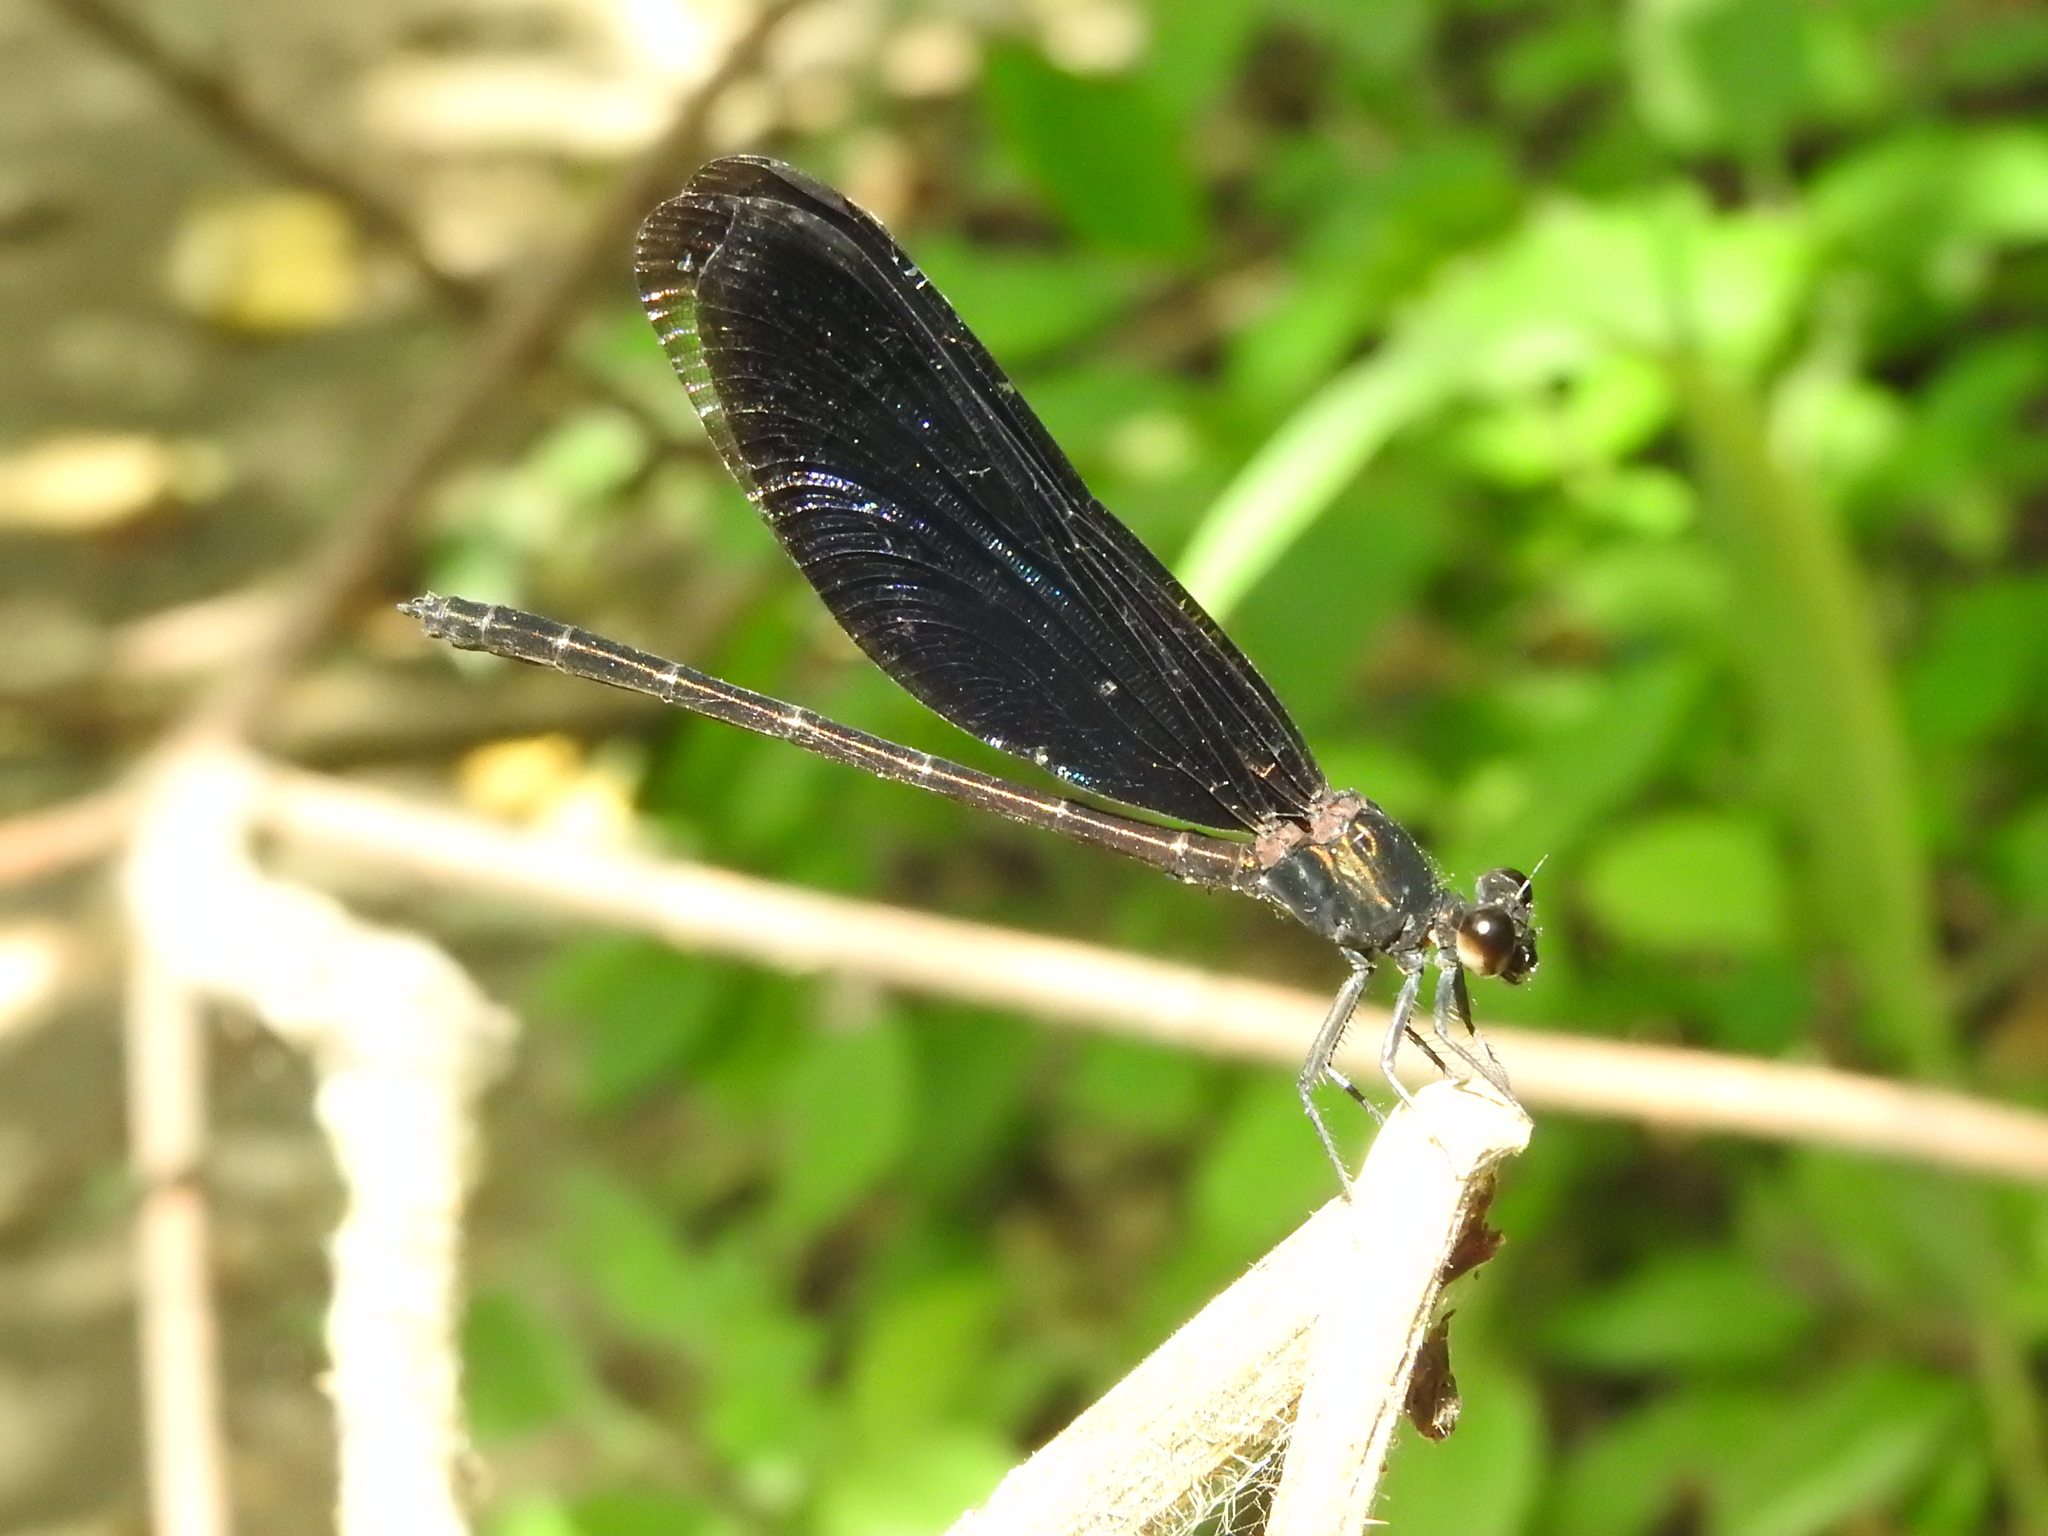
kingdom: Animalia
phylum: Arthropoda
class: Insecta
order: Odonata
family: Euphaeidae
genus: Euphaea
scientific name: Euphaea refulgens
